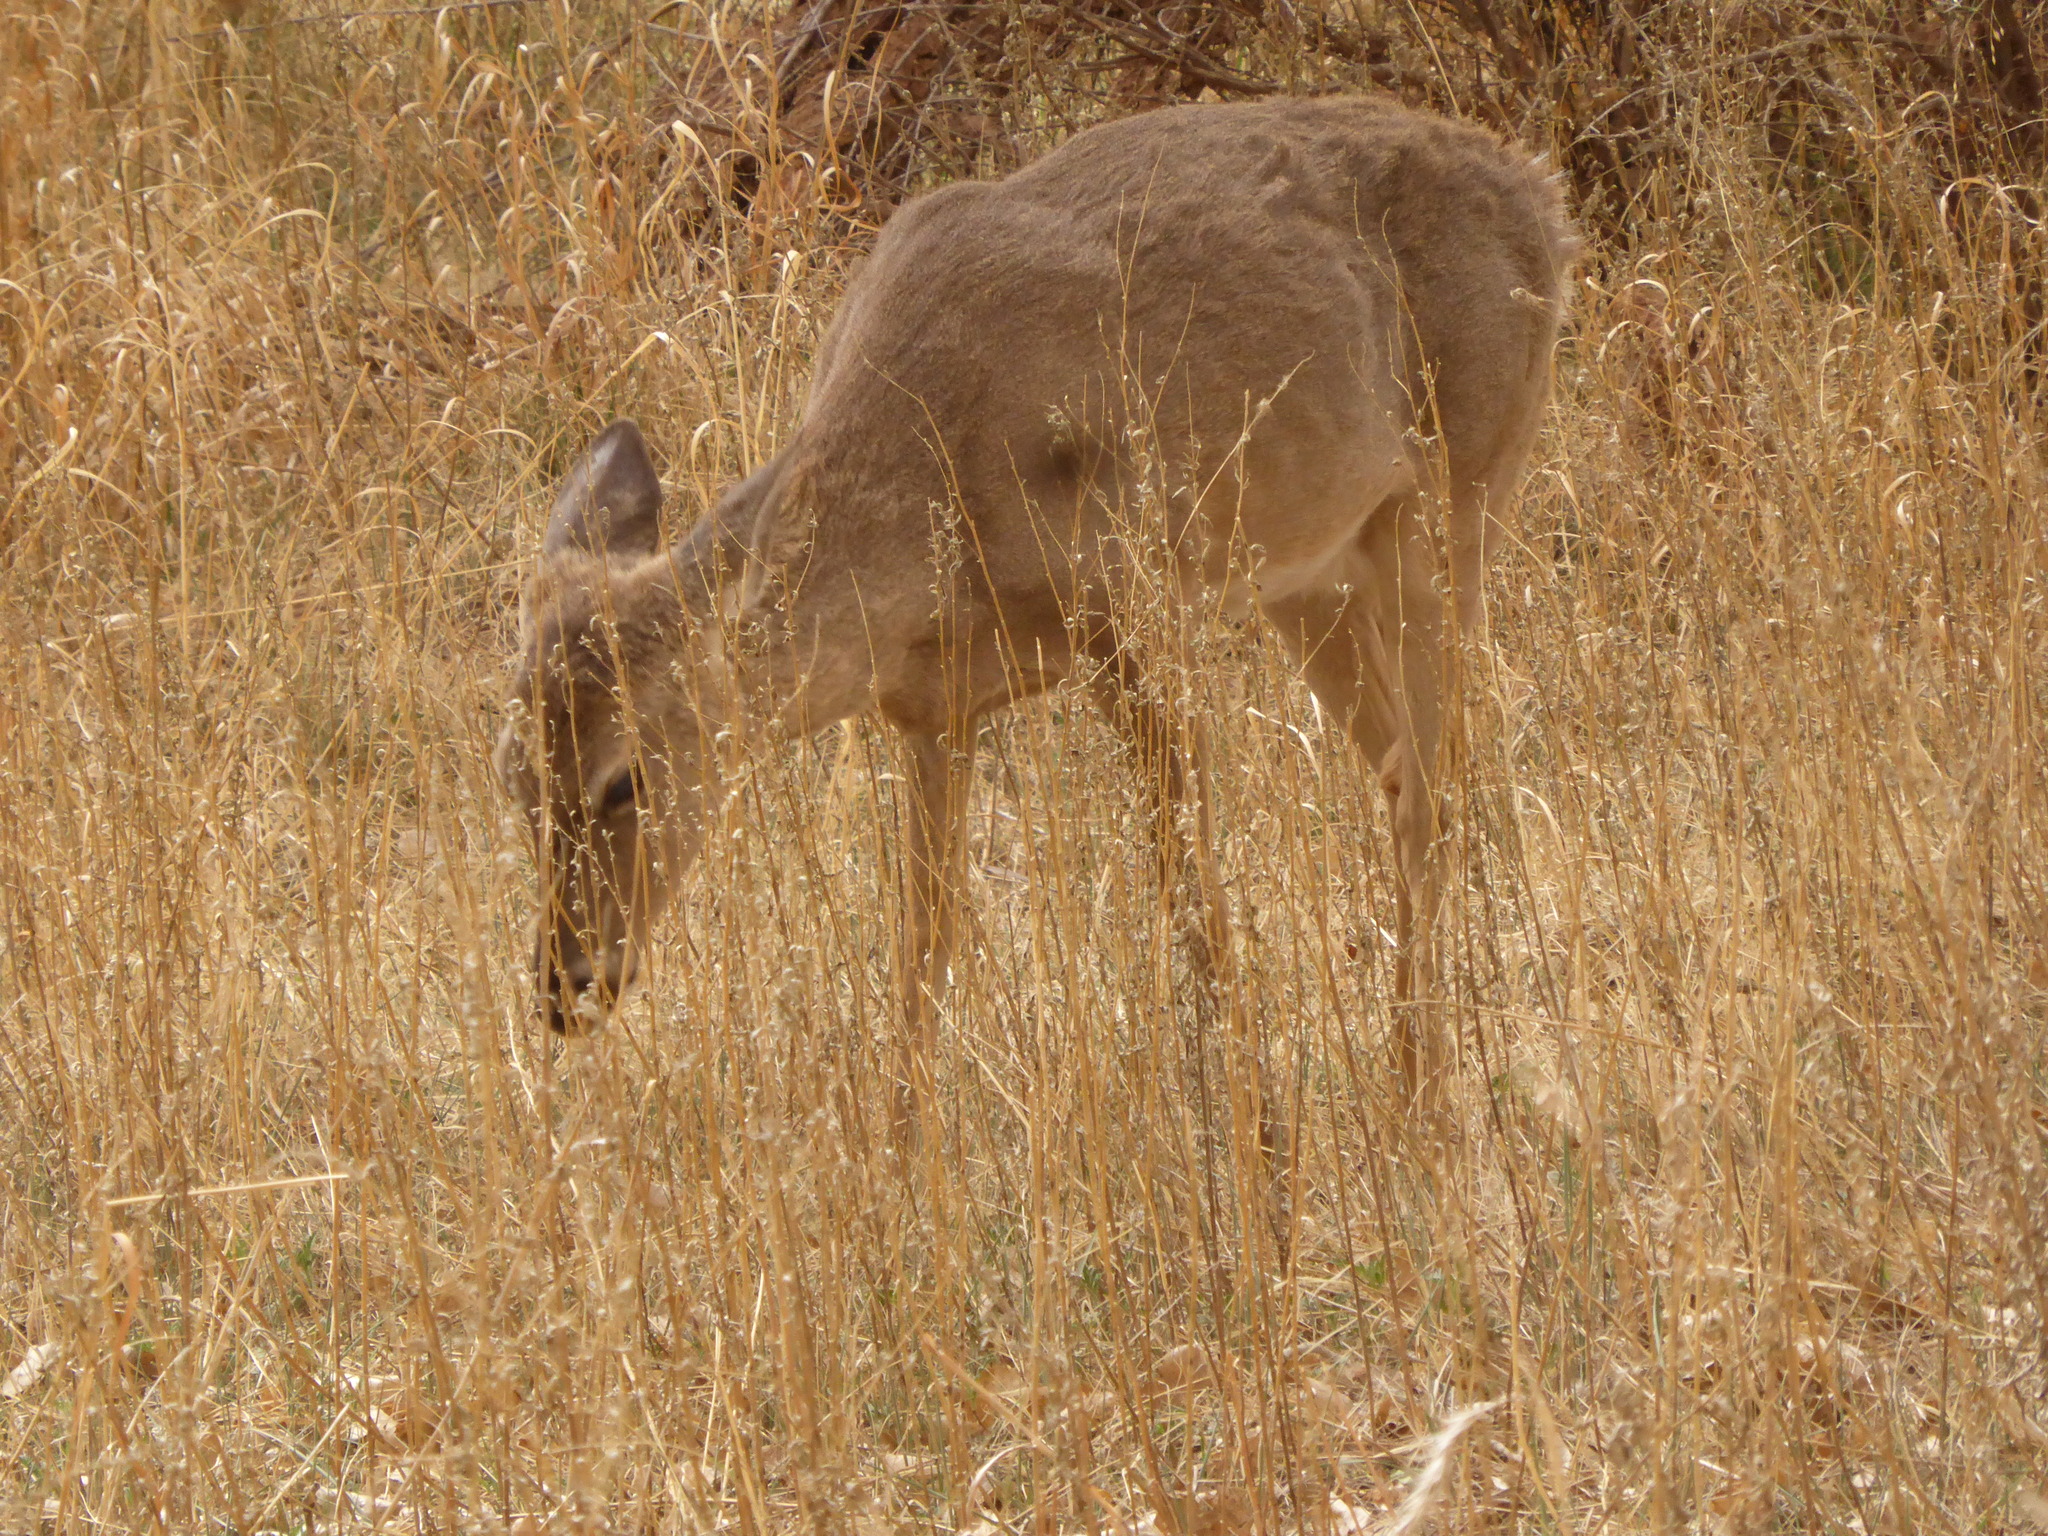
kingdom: Animalia
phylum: Chordata
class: Mammalia
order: Artiodactyla
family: Cervidae
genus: Odocoileus
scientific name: Odocoileus virginianus
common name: White-tailed deer
